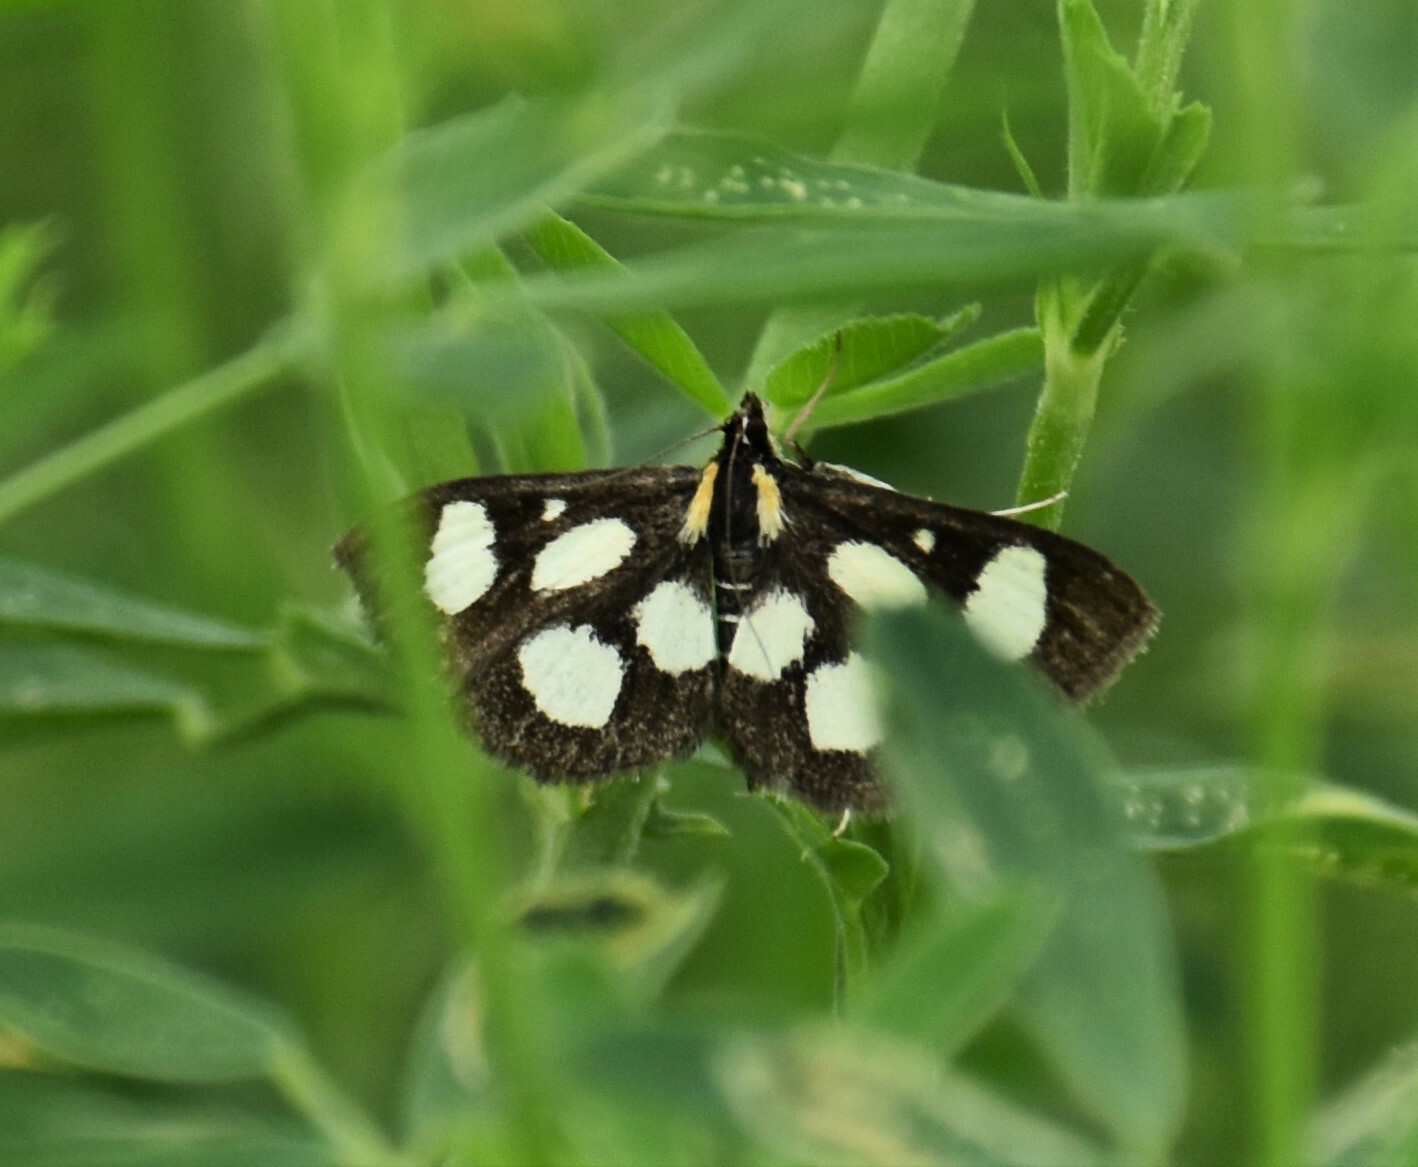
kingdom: Animalia
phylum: Arthropoda
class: Insecta
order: Lepidoptera
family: Crambidae
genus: Anania
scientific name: Anania funebris
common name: White-spotted sable moth
